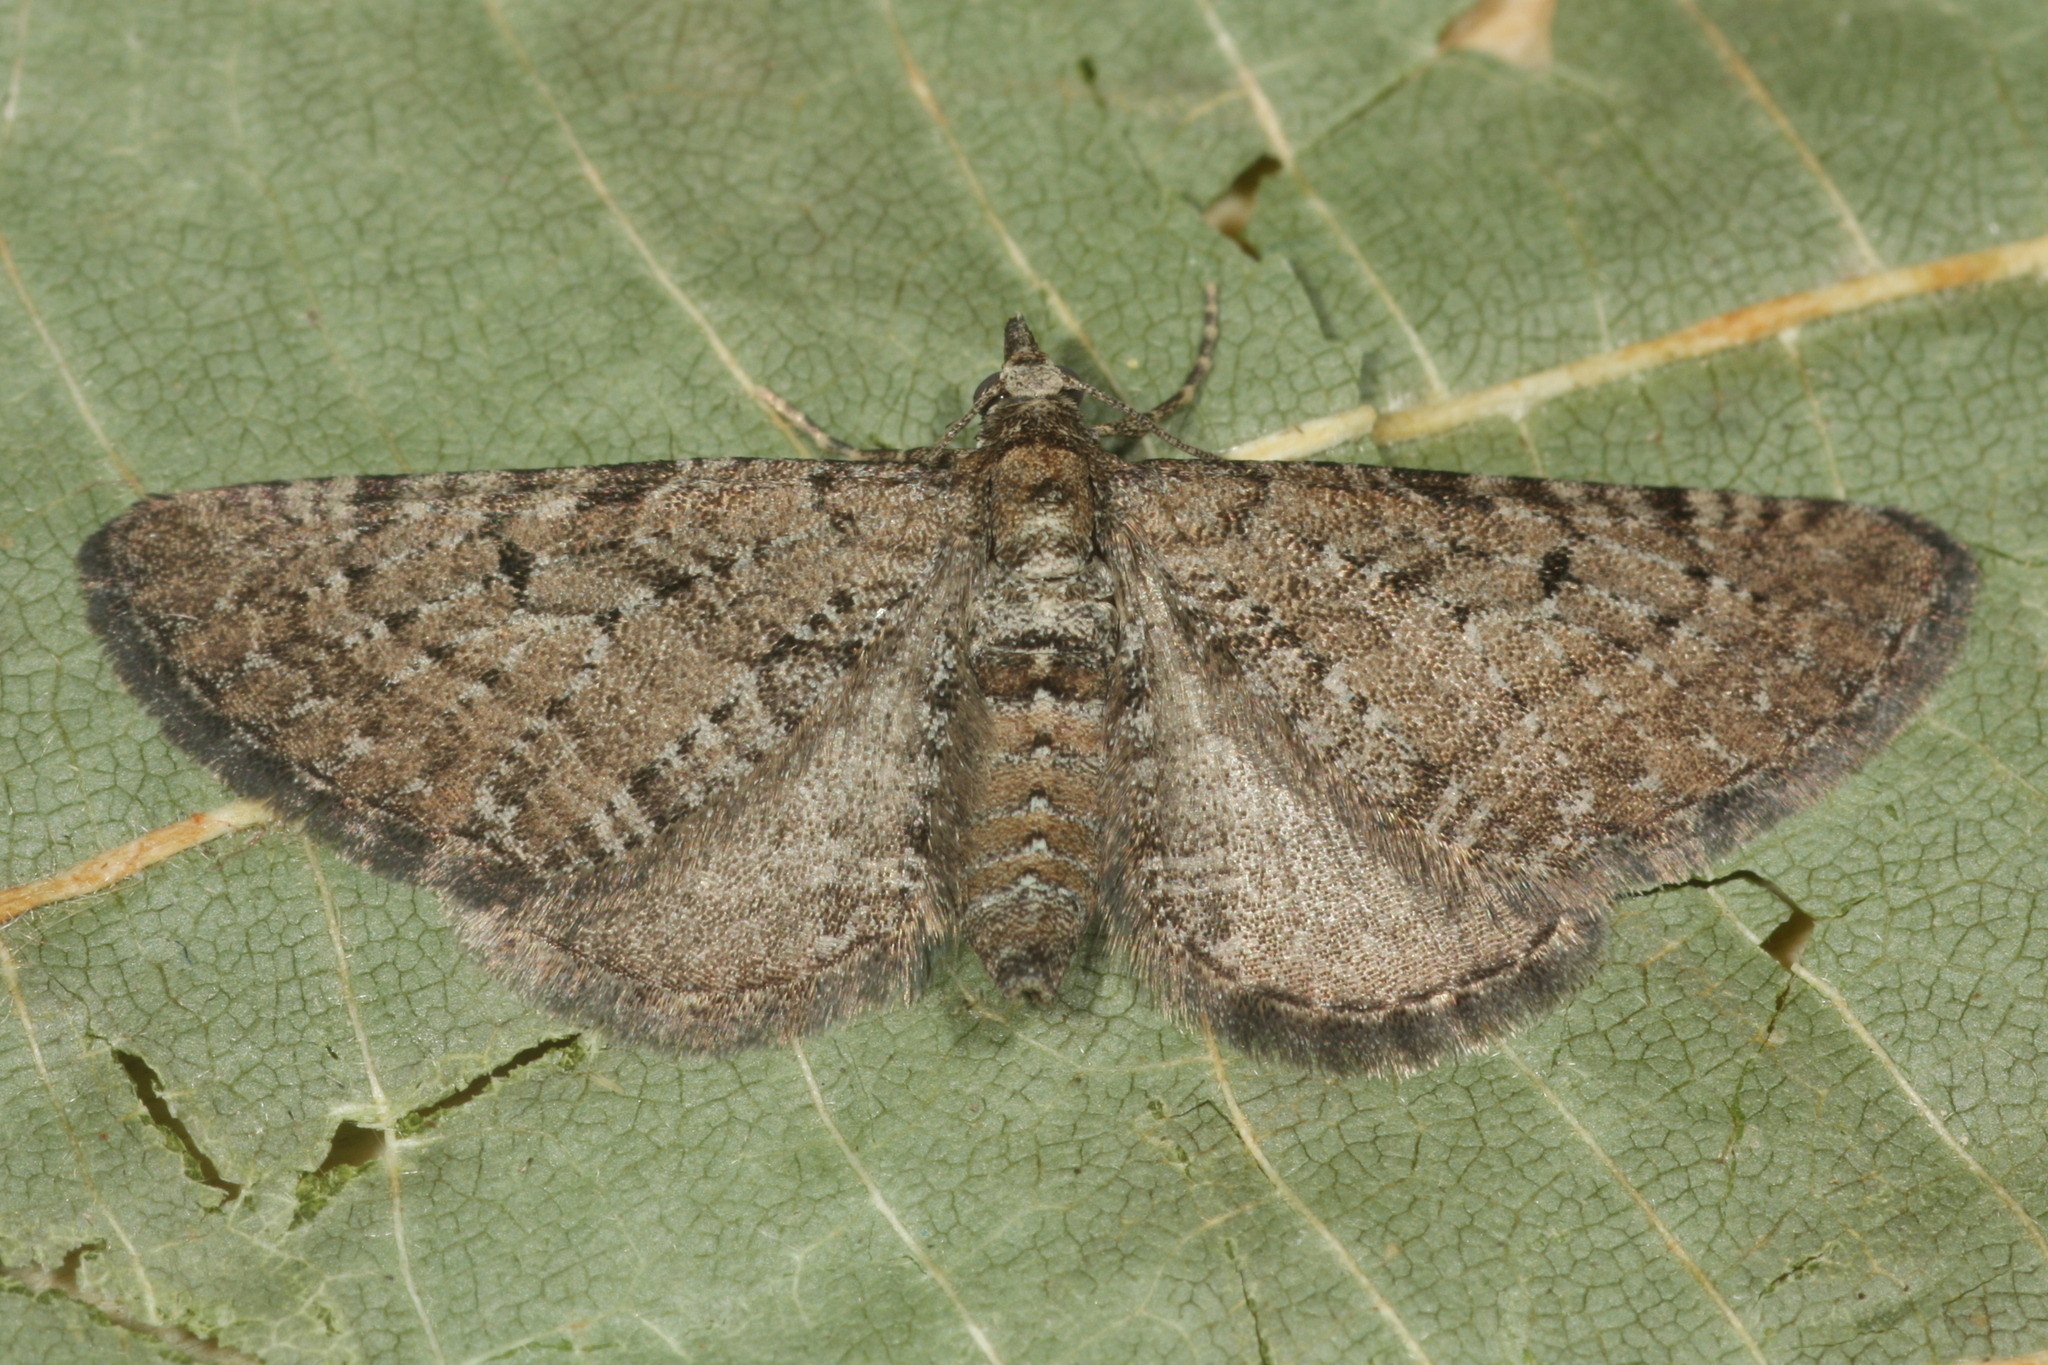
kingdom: Animalia
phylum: Arthropoda
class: Insecta
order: Lepidoptera
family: Geometridae
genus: Eupithecia
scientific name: Eupithecia intricata
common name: Freyers pug
